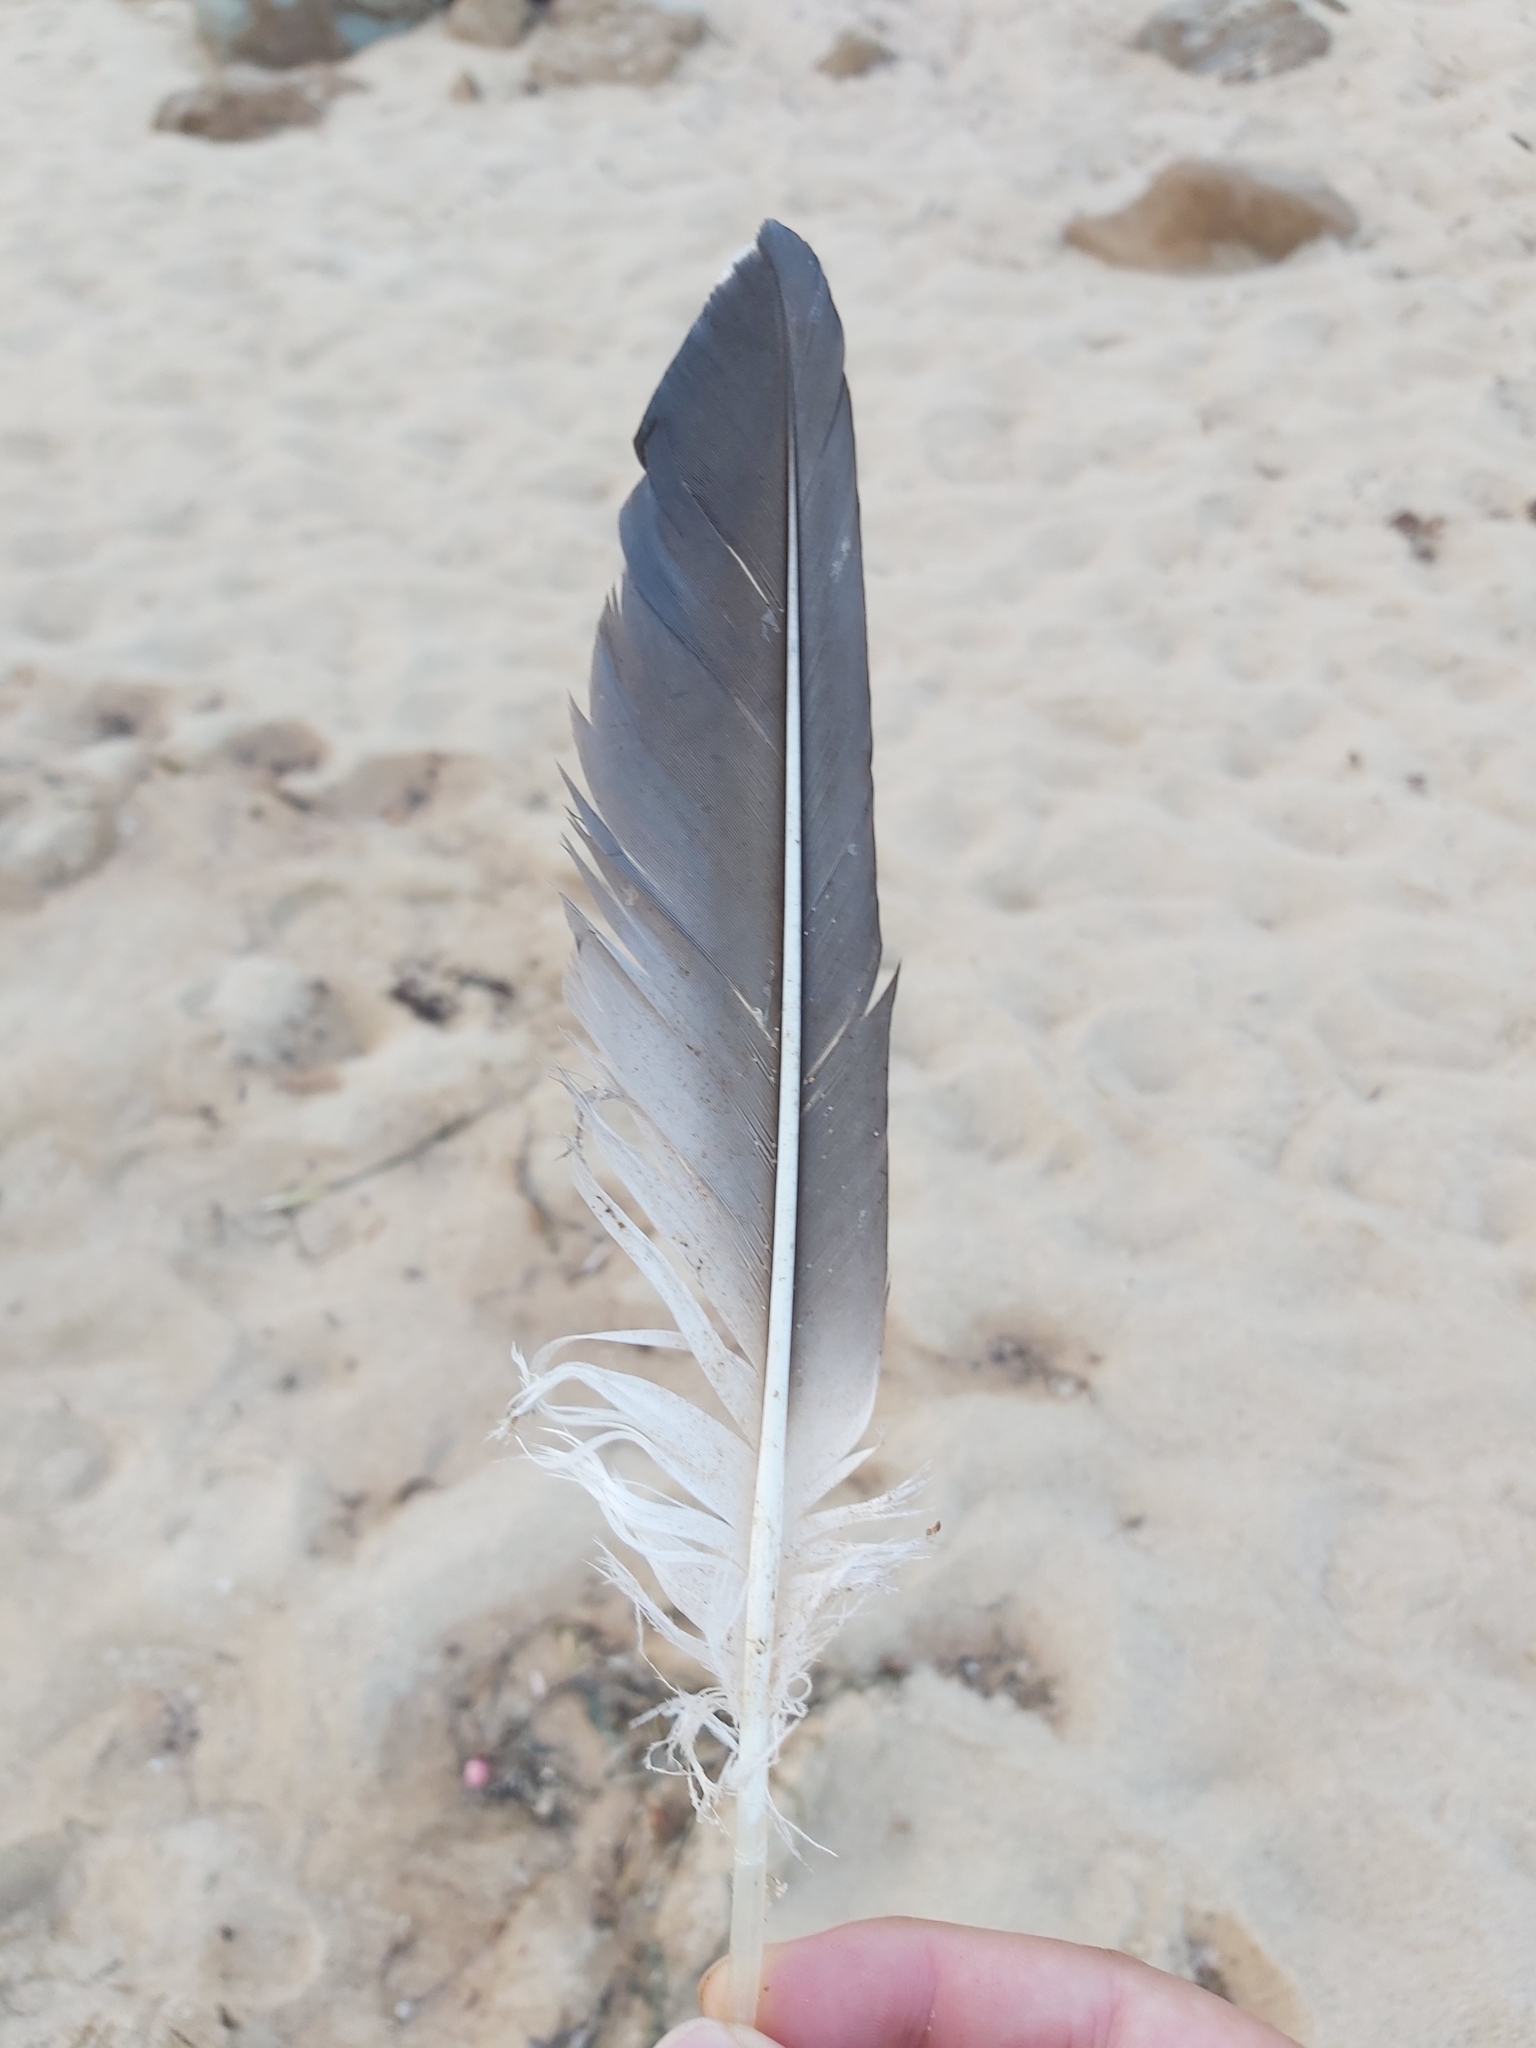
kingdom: Animalia
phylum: Chordata
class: Aves
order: Suliformes
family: Sulidae
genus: Morus
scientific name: Morus serrator
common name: Australasian gannet
